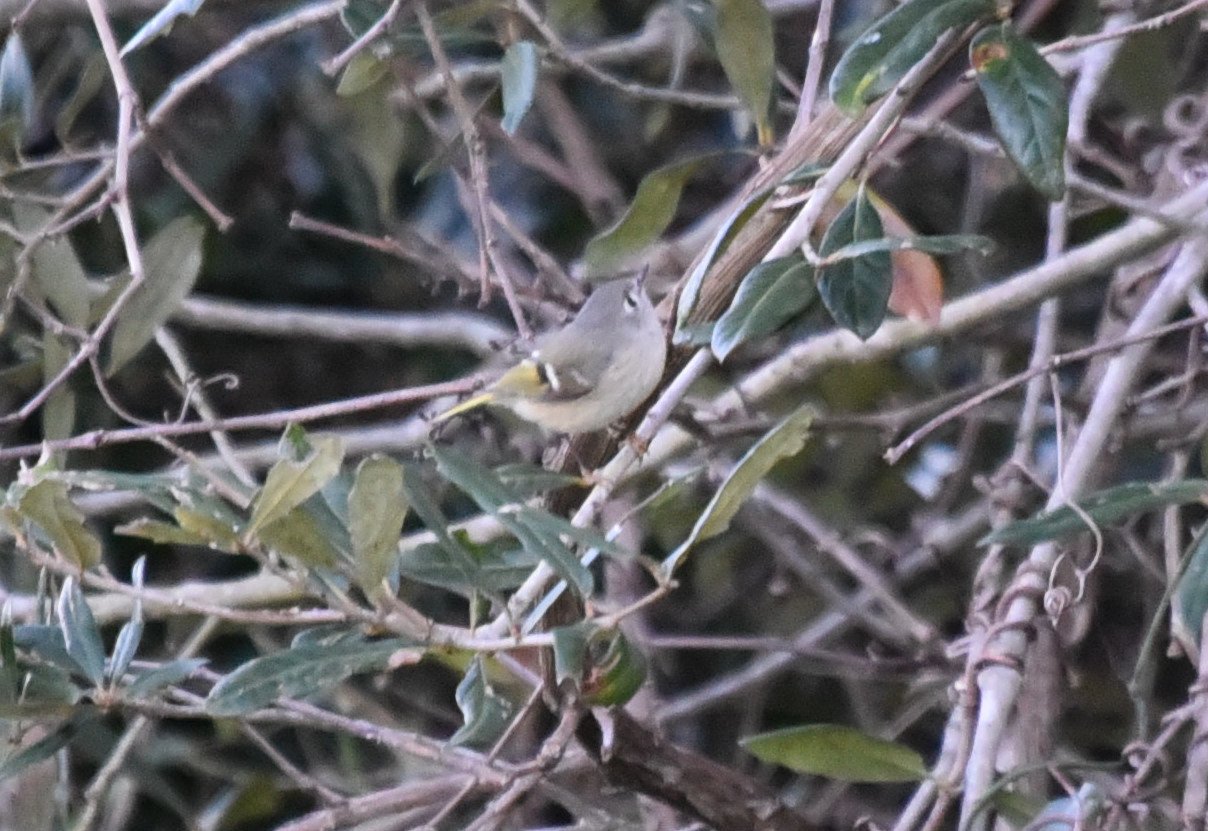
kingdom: Animalia
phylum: Chordata
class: Aves
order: Passeriformes
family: Regulidae
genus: Regulus
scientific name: Regulus calendula
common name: Ruby-crowned kinglet
